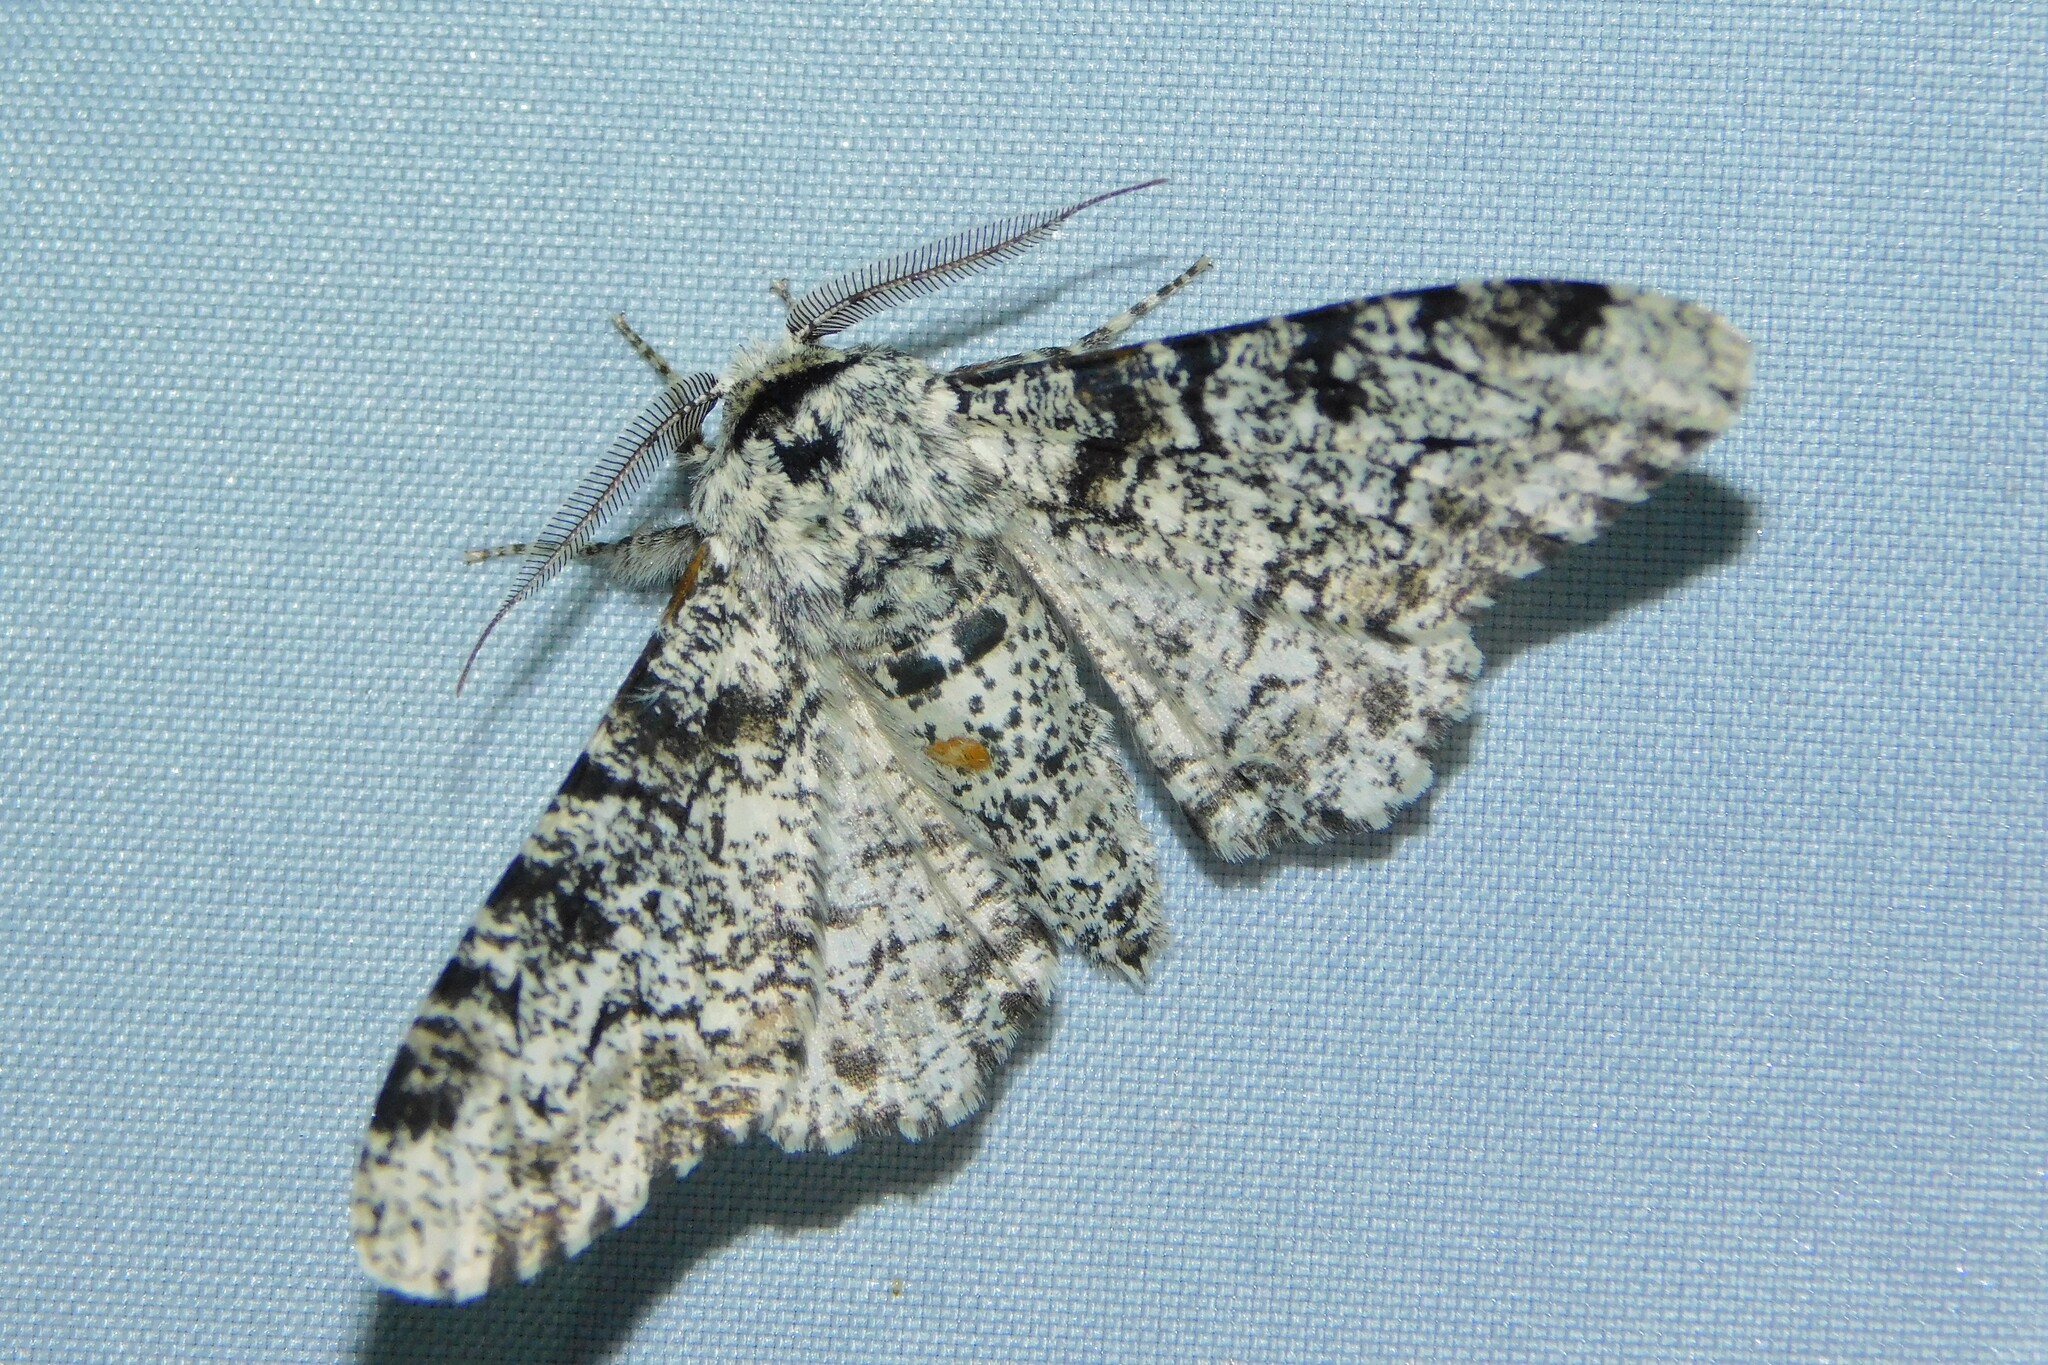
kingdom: Animalia
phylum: Arthropoda
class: Insecta
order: Lepidoptera
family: Geometridae
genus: Biston
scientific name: Biston betularia
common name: Peppered moth
